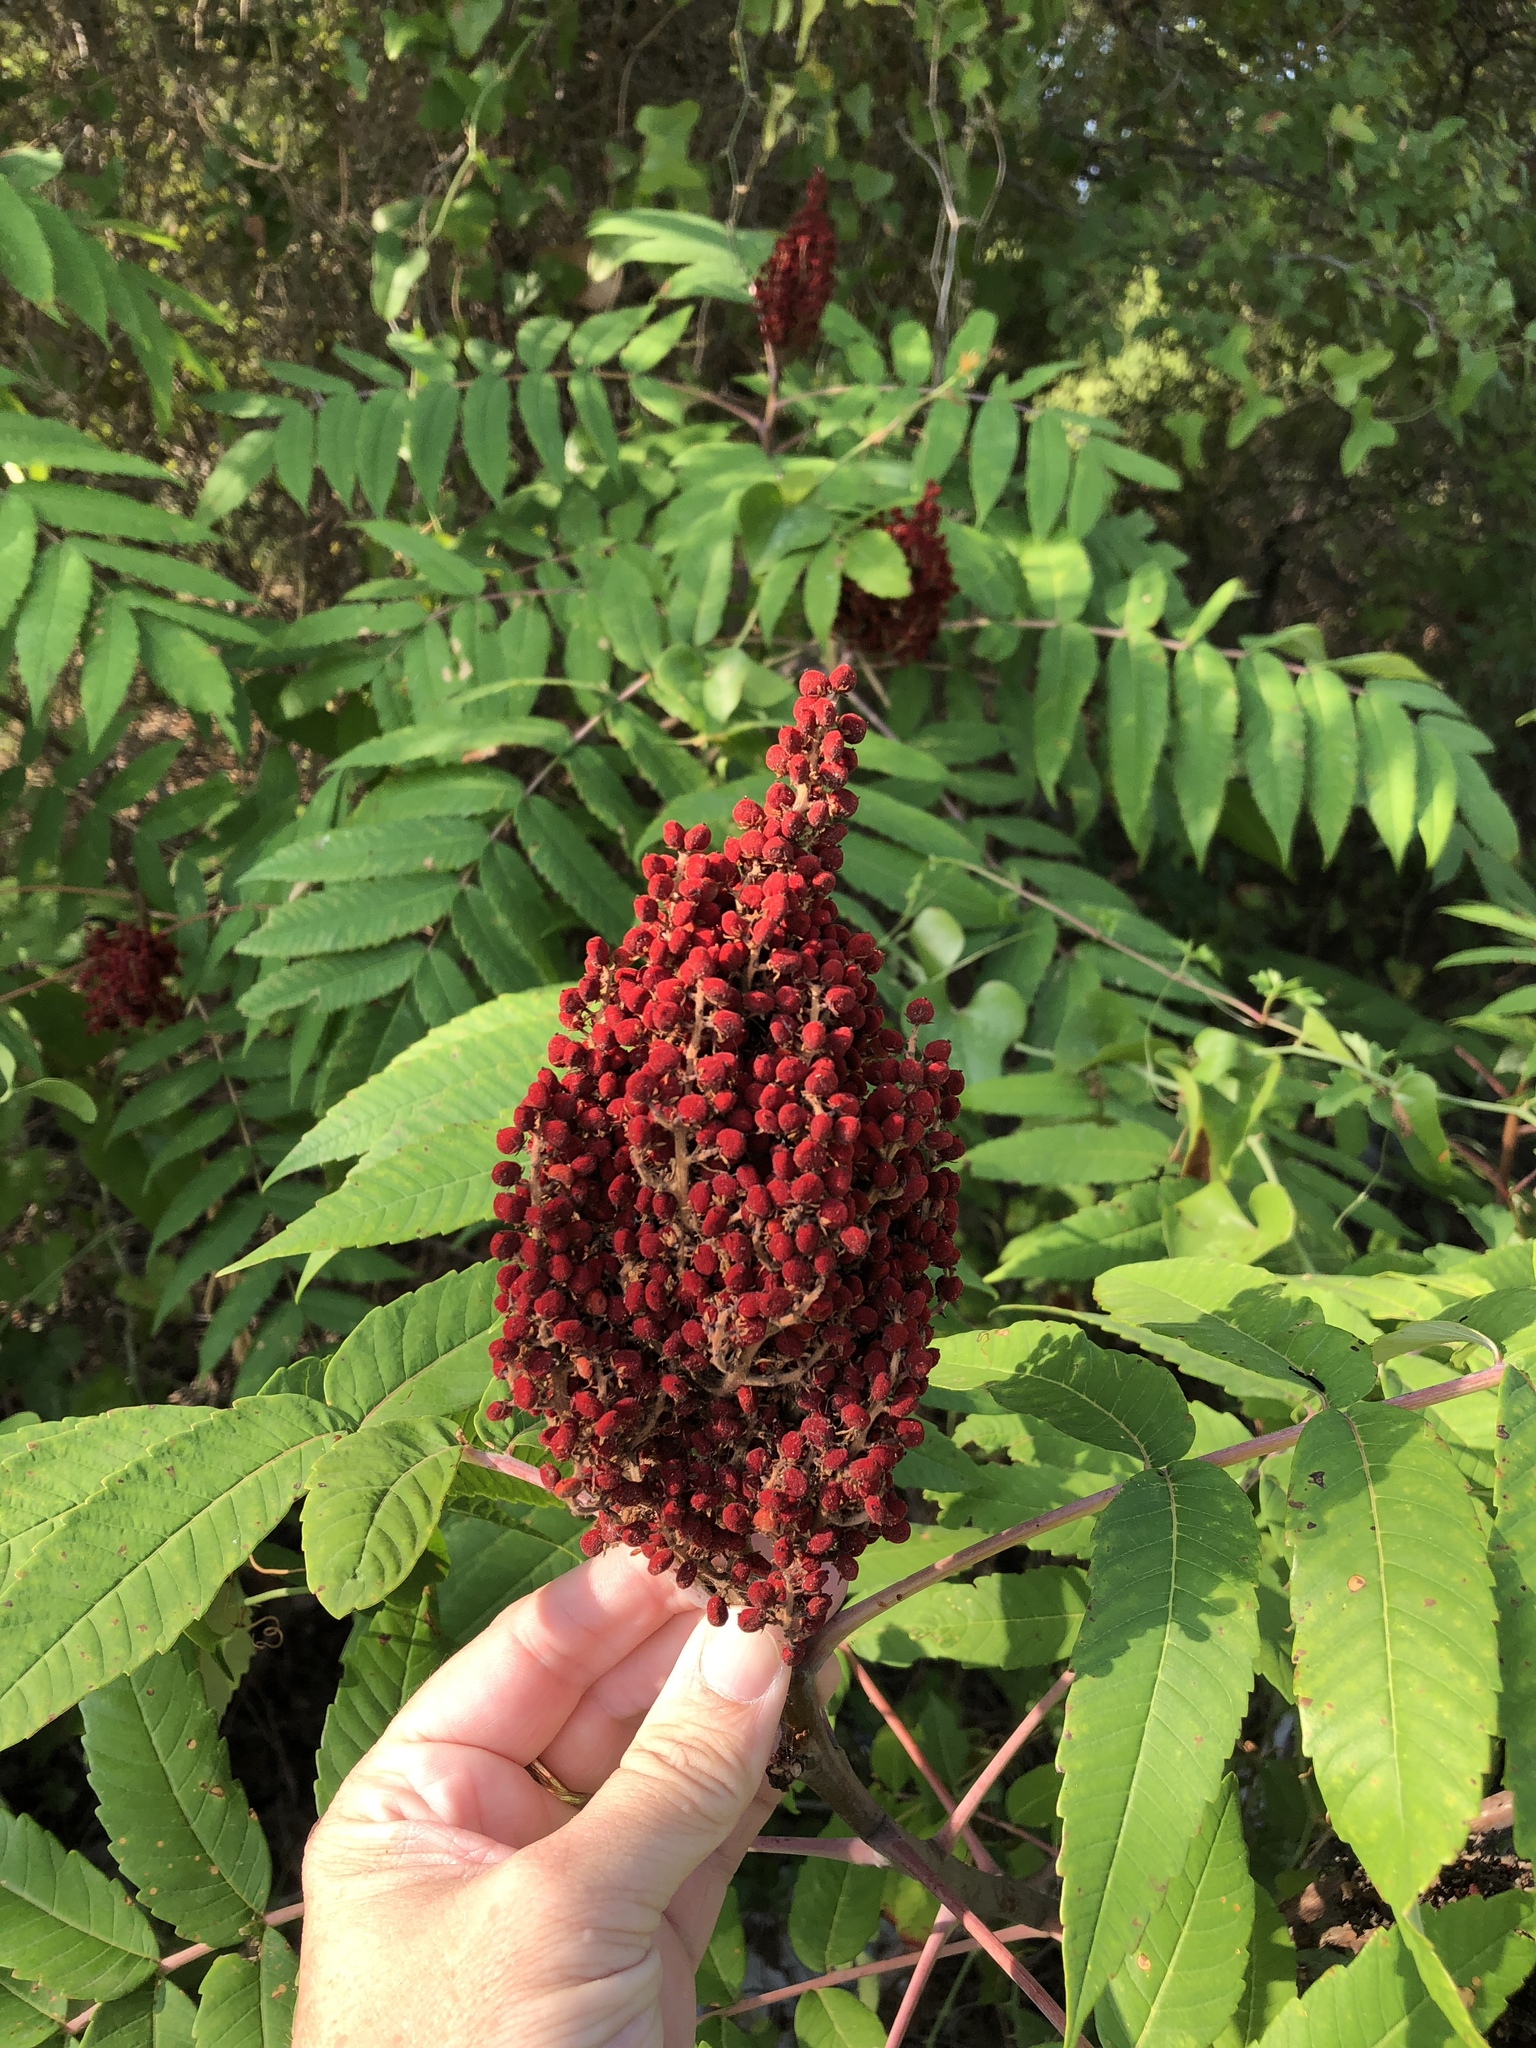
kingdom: Plantae
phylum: Tracheophyta
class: Magnoliopsida
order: Sapindales
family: Anacardiaceae
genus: Rhus
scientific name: Rhus glabra
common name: Scarlet sumac
